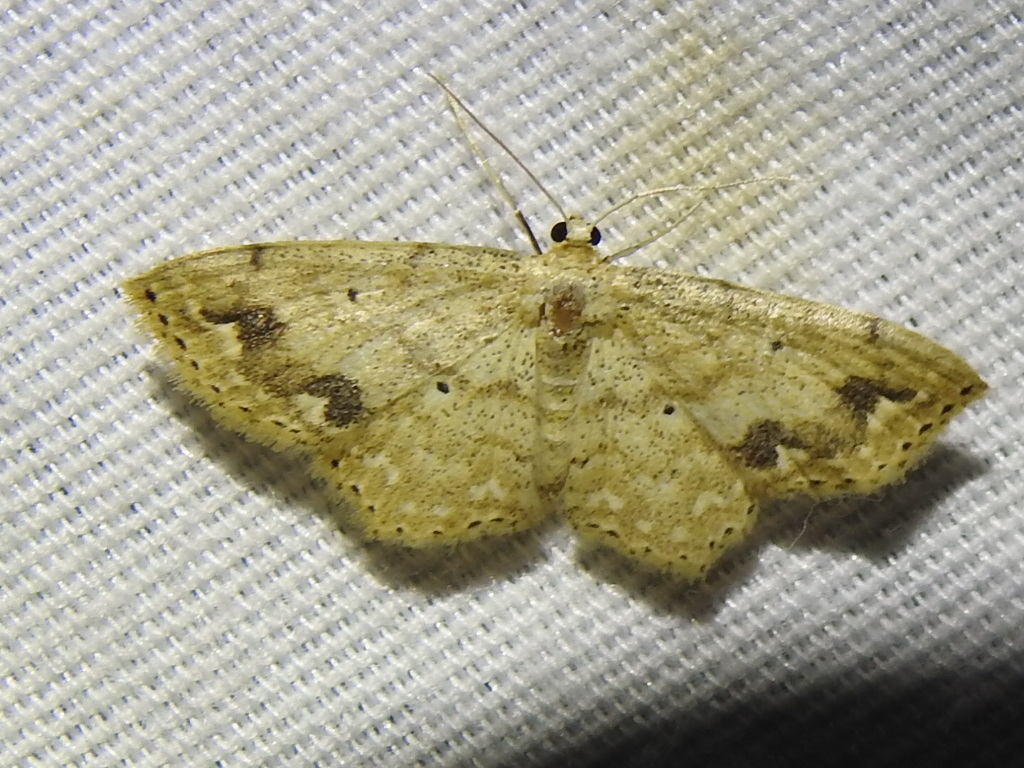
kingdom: Animalia
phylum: Arthropoda
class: Insecta
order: Lepidoptera
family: Geometridae
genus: Scopula
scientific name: Scopula compensata
